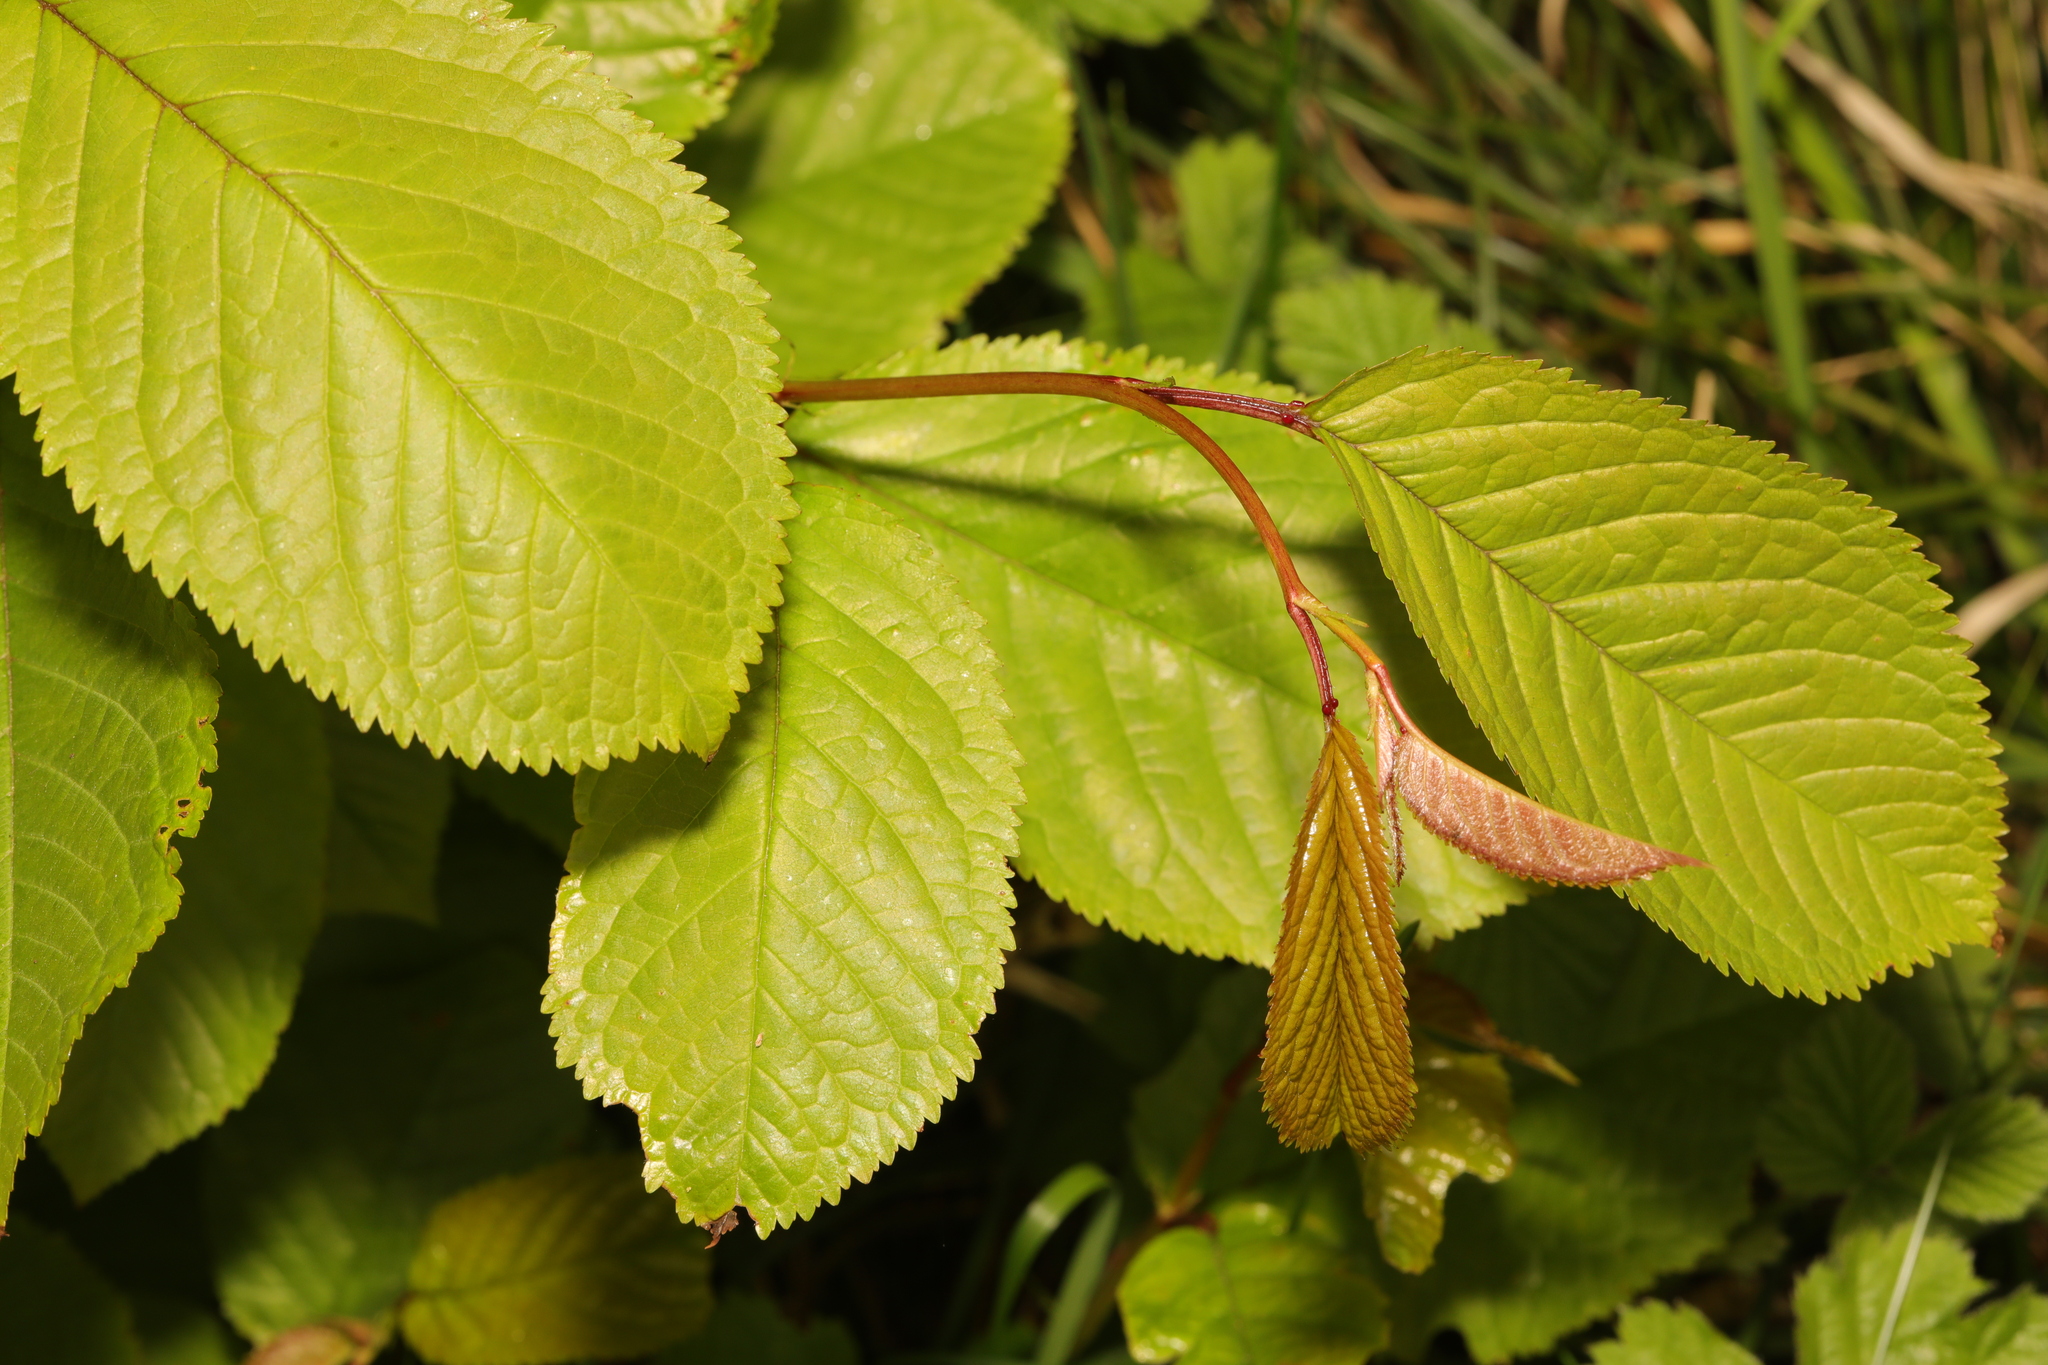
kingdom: Plantae
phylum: Tracheophyta
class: Magnoliopsida
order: Rosales
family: Rosaceae
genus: Prunus
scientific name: Prunus avium
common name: Sweet cherry
